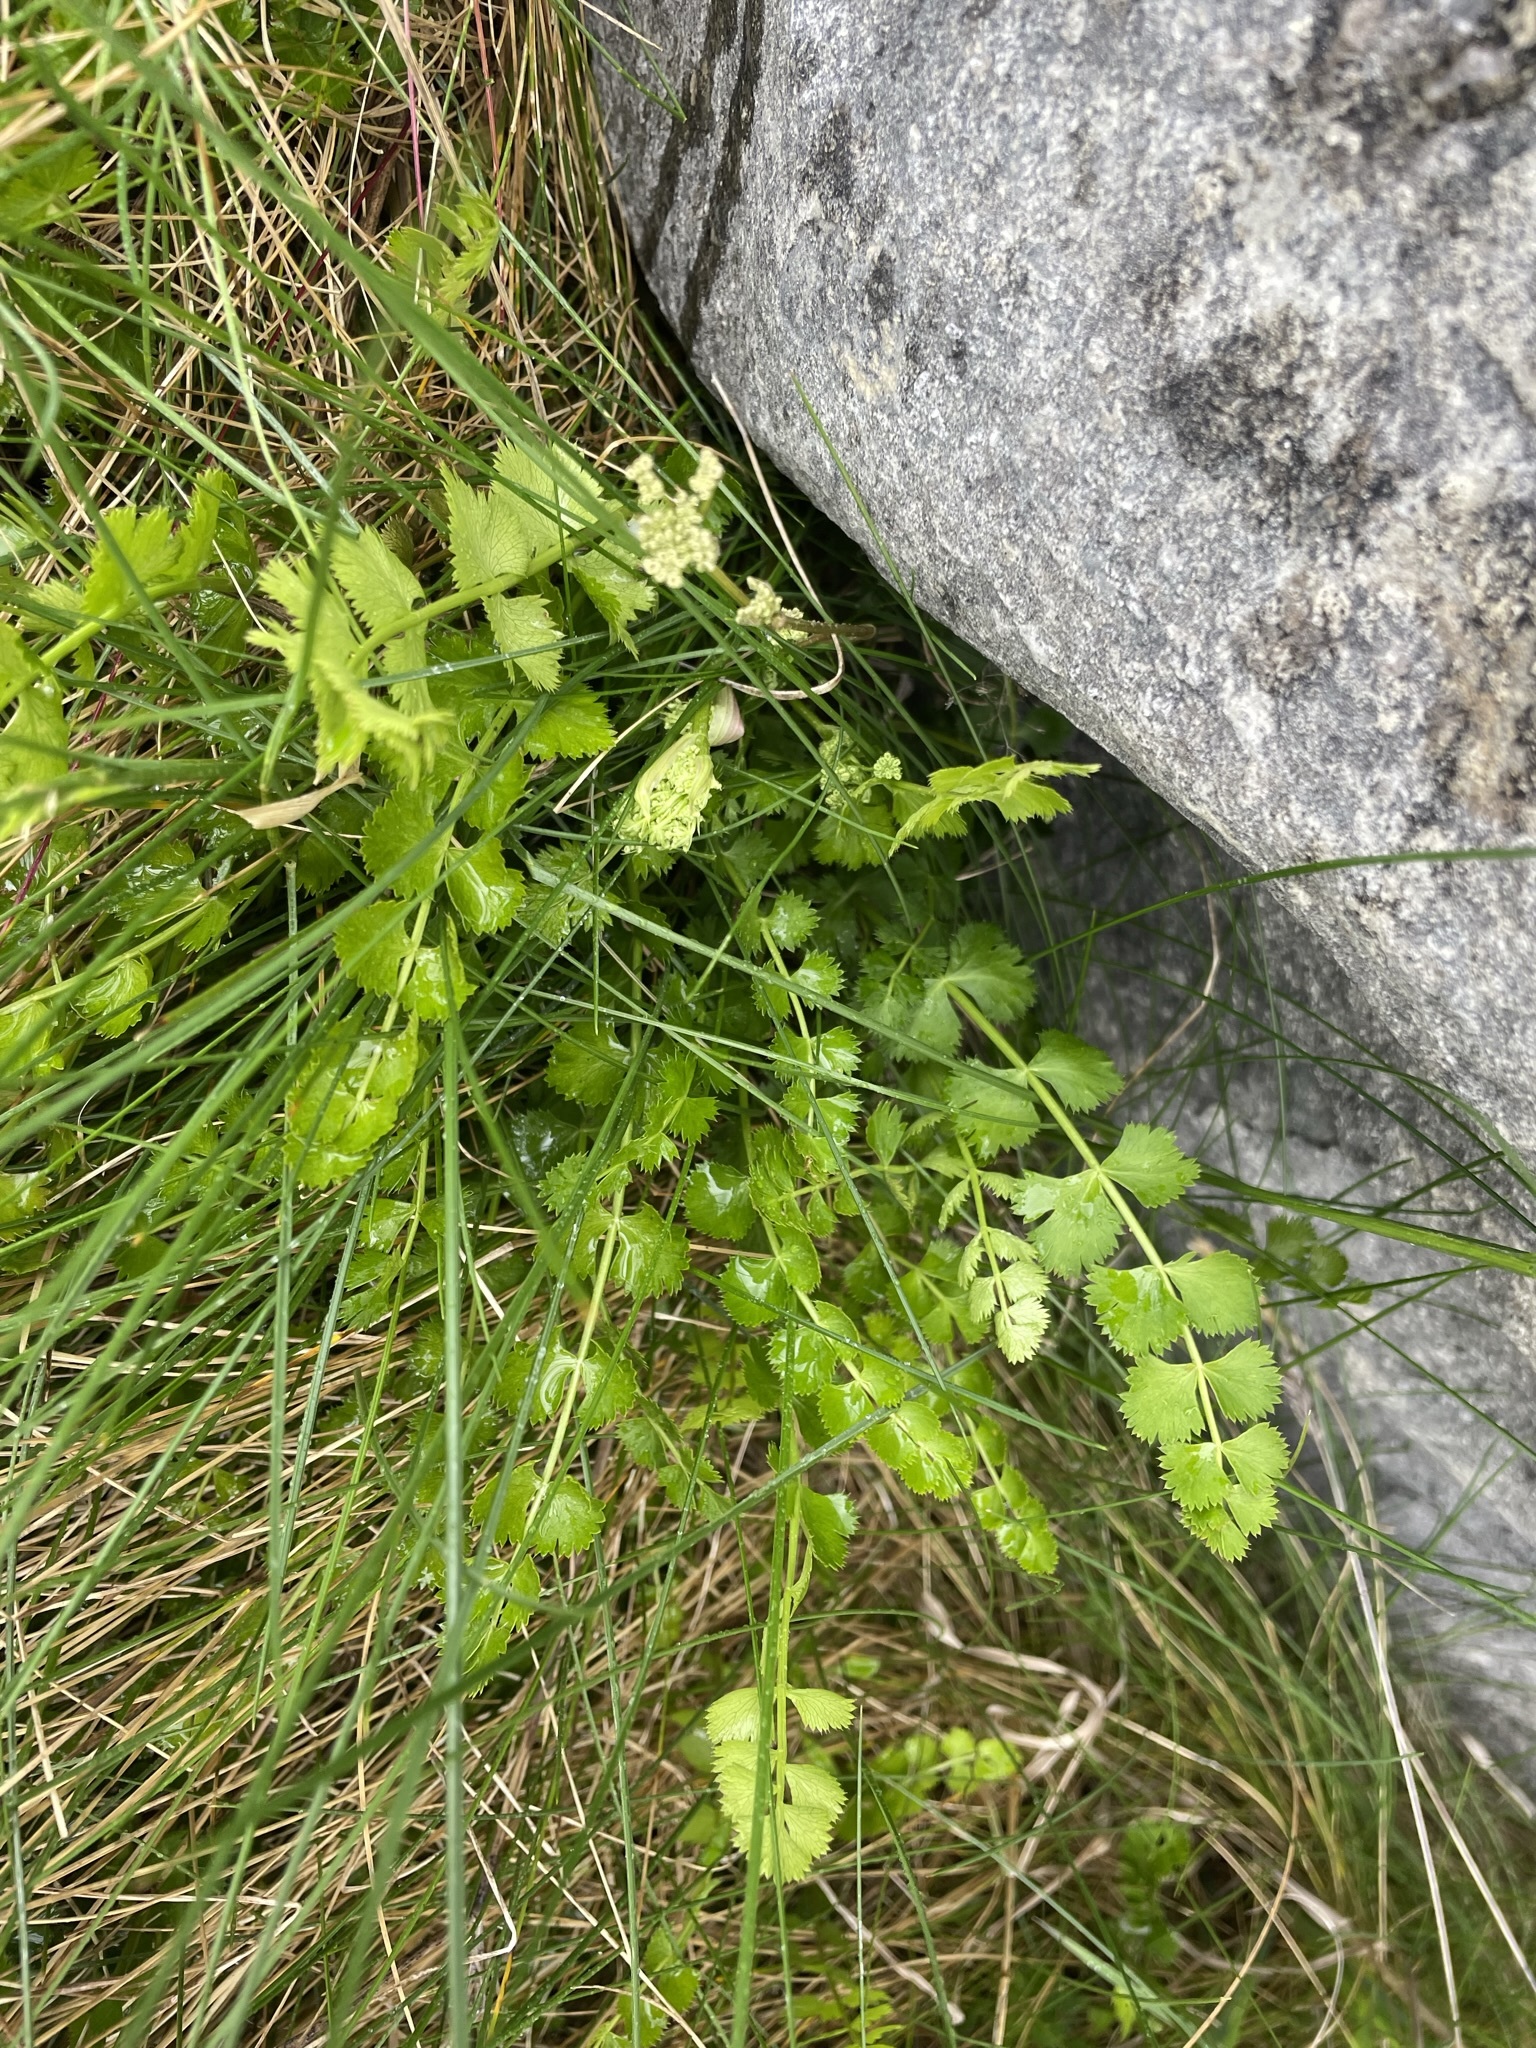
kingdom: Plantae
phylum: Tracheophyta
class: Magnoliopsida
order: Apiales
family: Apiaceae
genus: Anisotome
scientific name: Anisotome aromatica
